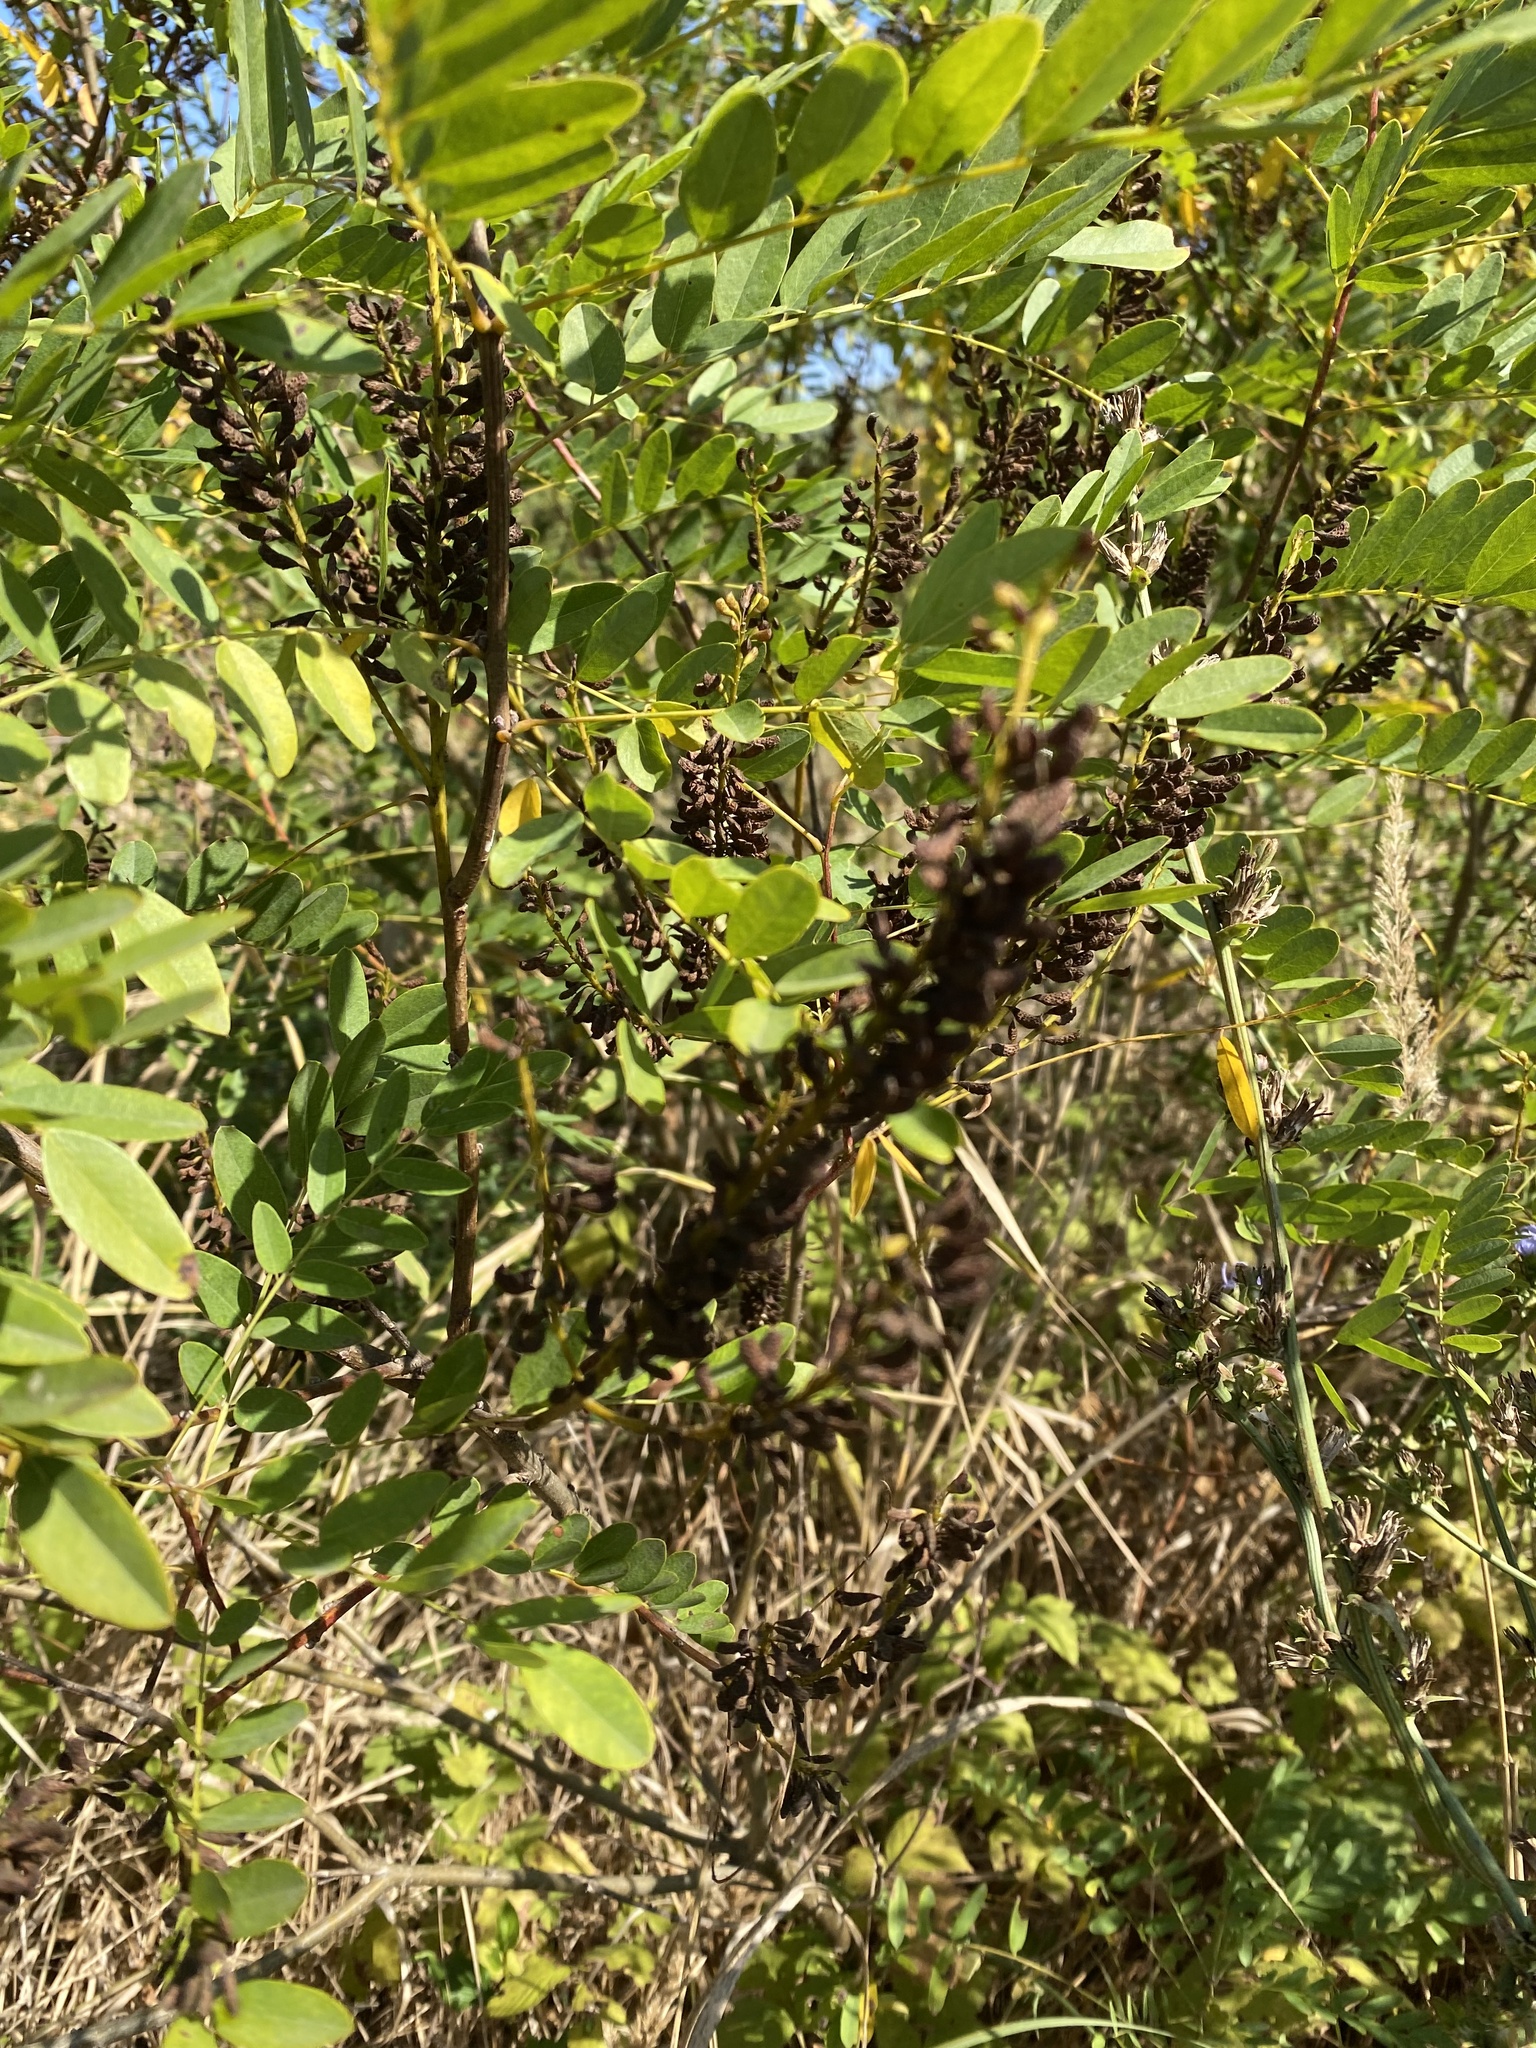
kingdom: Plantae
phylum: Tracheophyta
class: Magnoliopsida
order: Fabales
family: Fabaceae
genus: Amorpha
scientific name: Amorpha fruticosa
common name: False indigo
